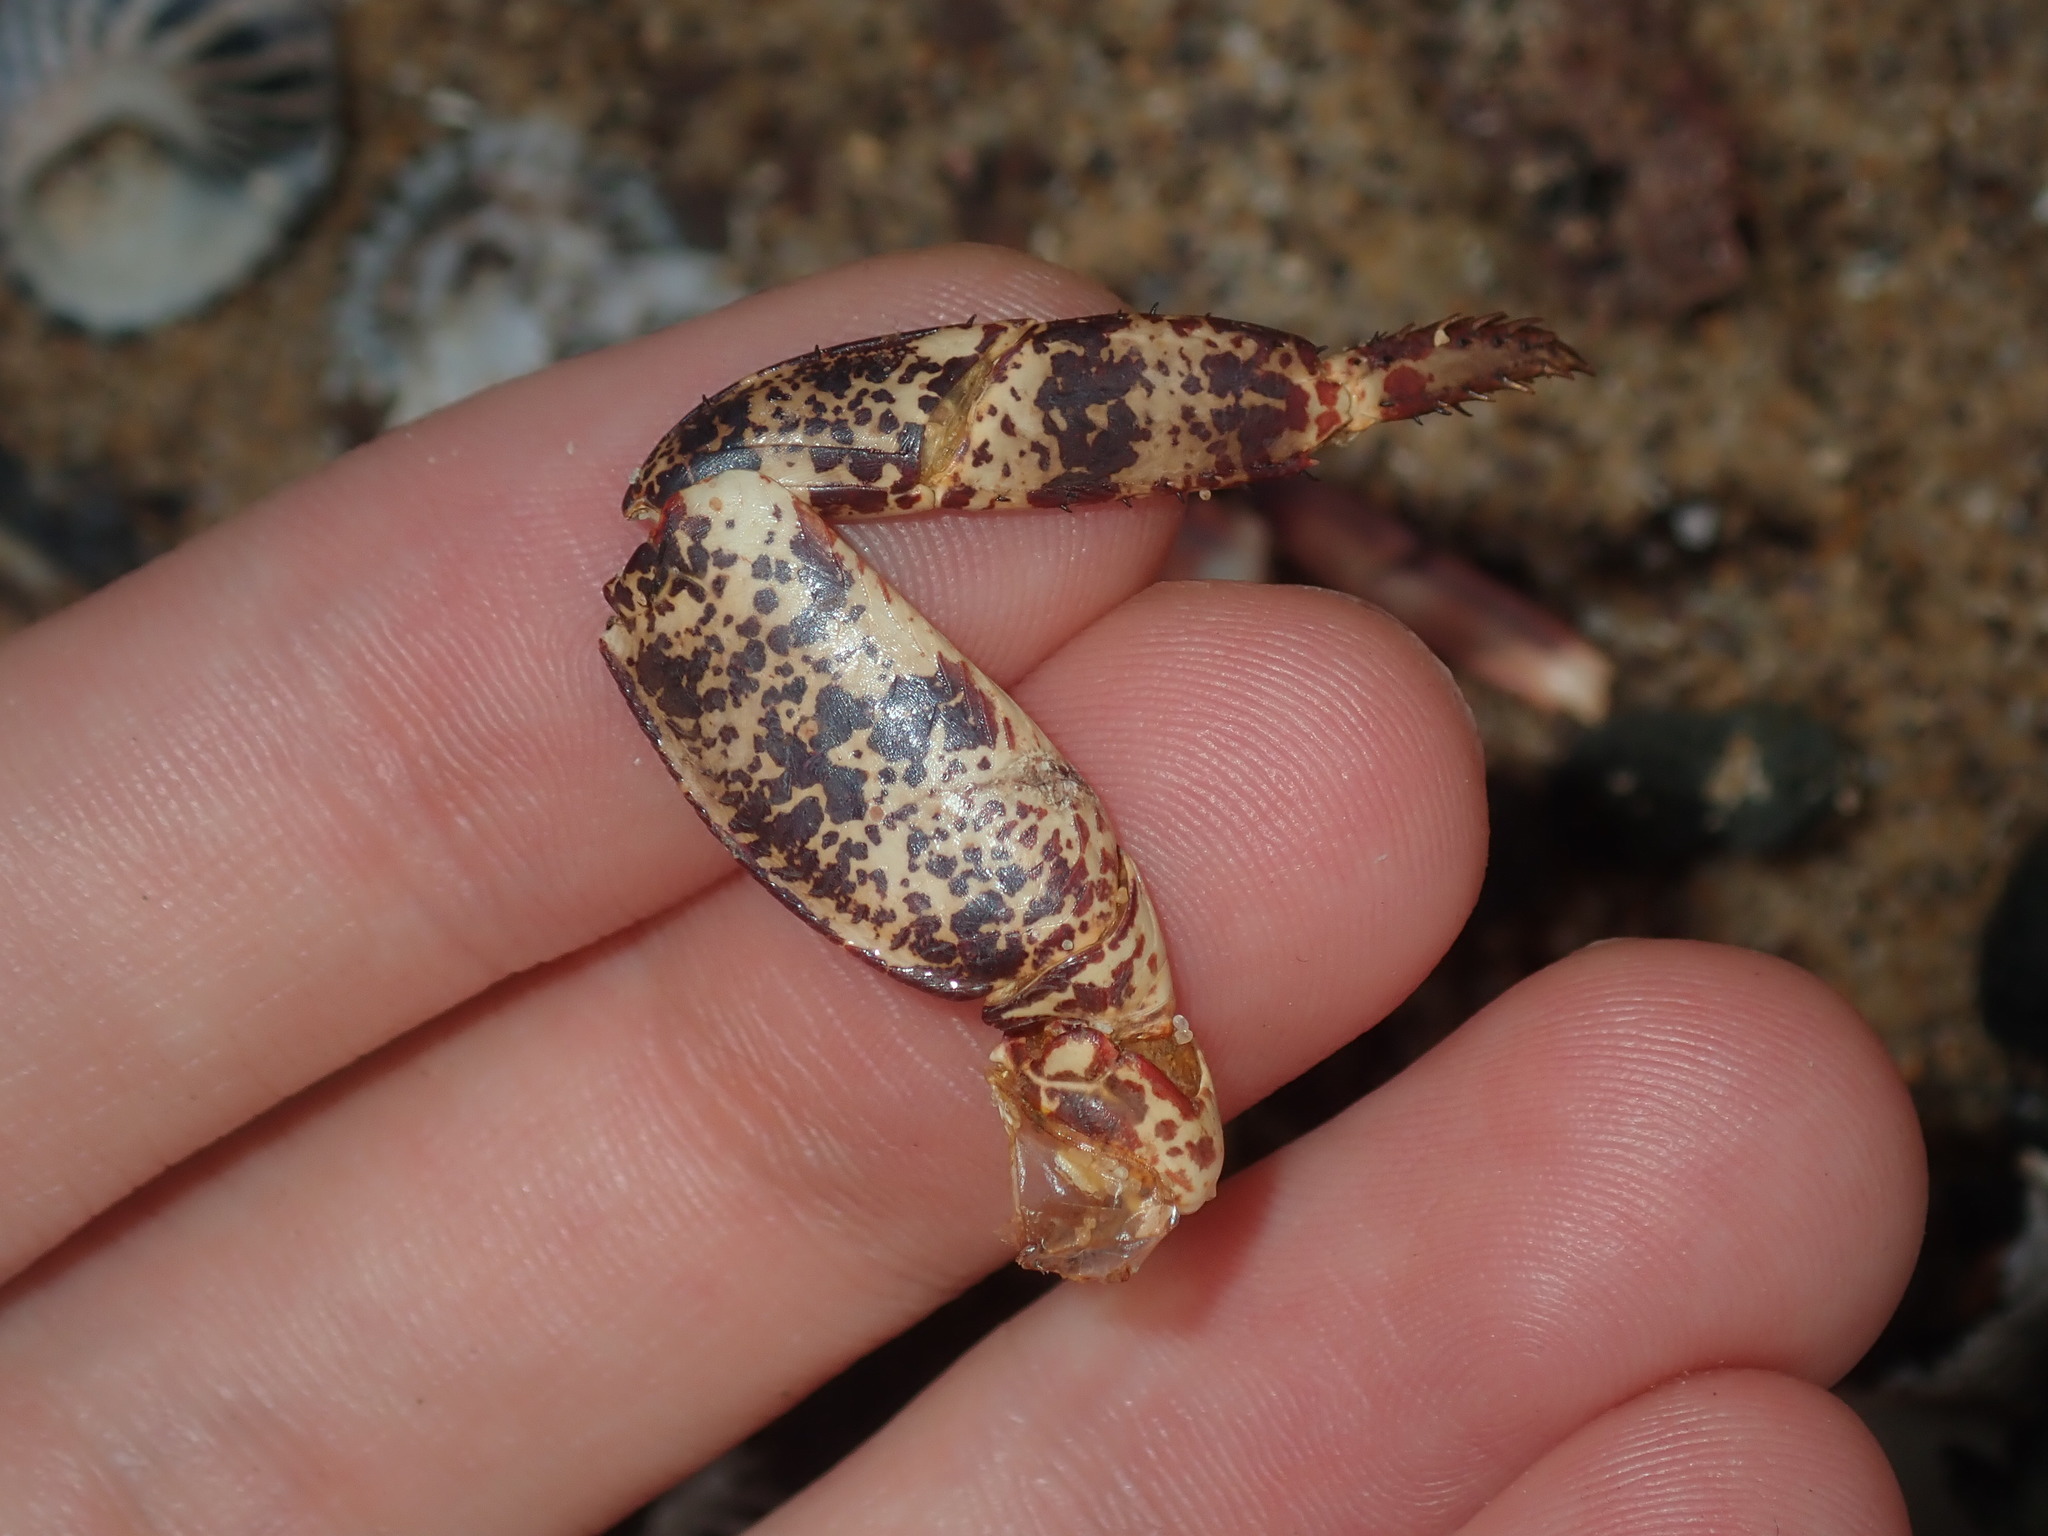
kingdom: Animalia
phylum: Arthropoda
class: Malacostraca
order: Decapoda
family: Grapsidae
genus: Leptograpsus
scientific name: Leptograpsus variegatus
